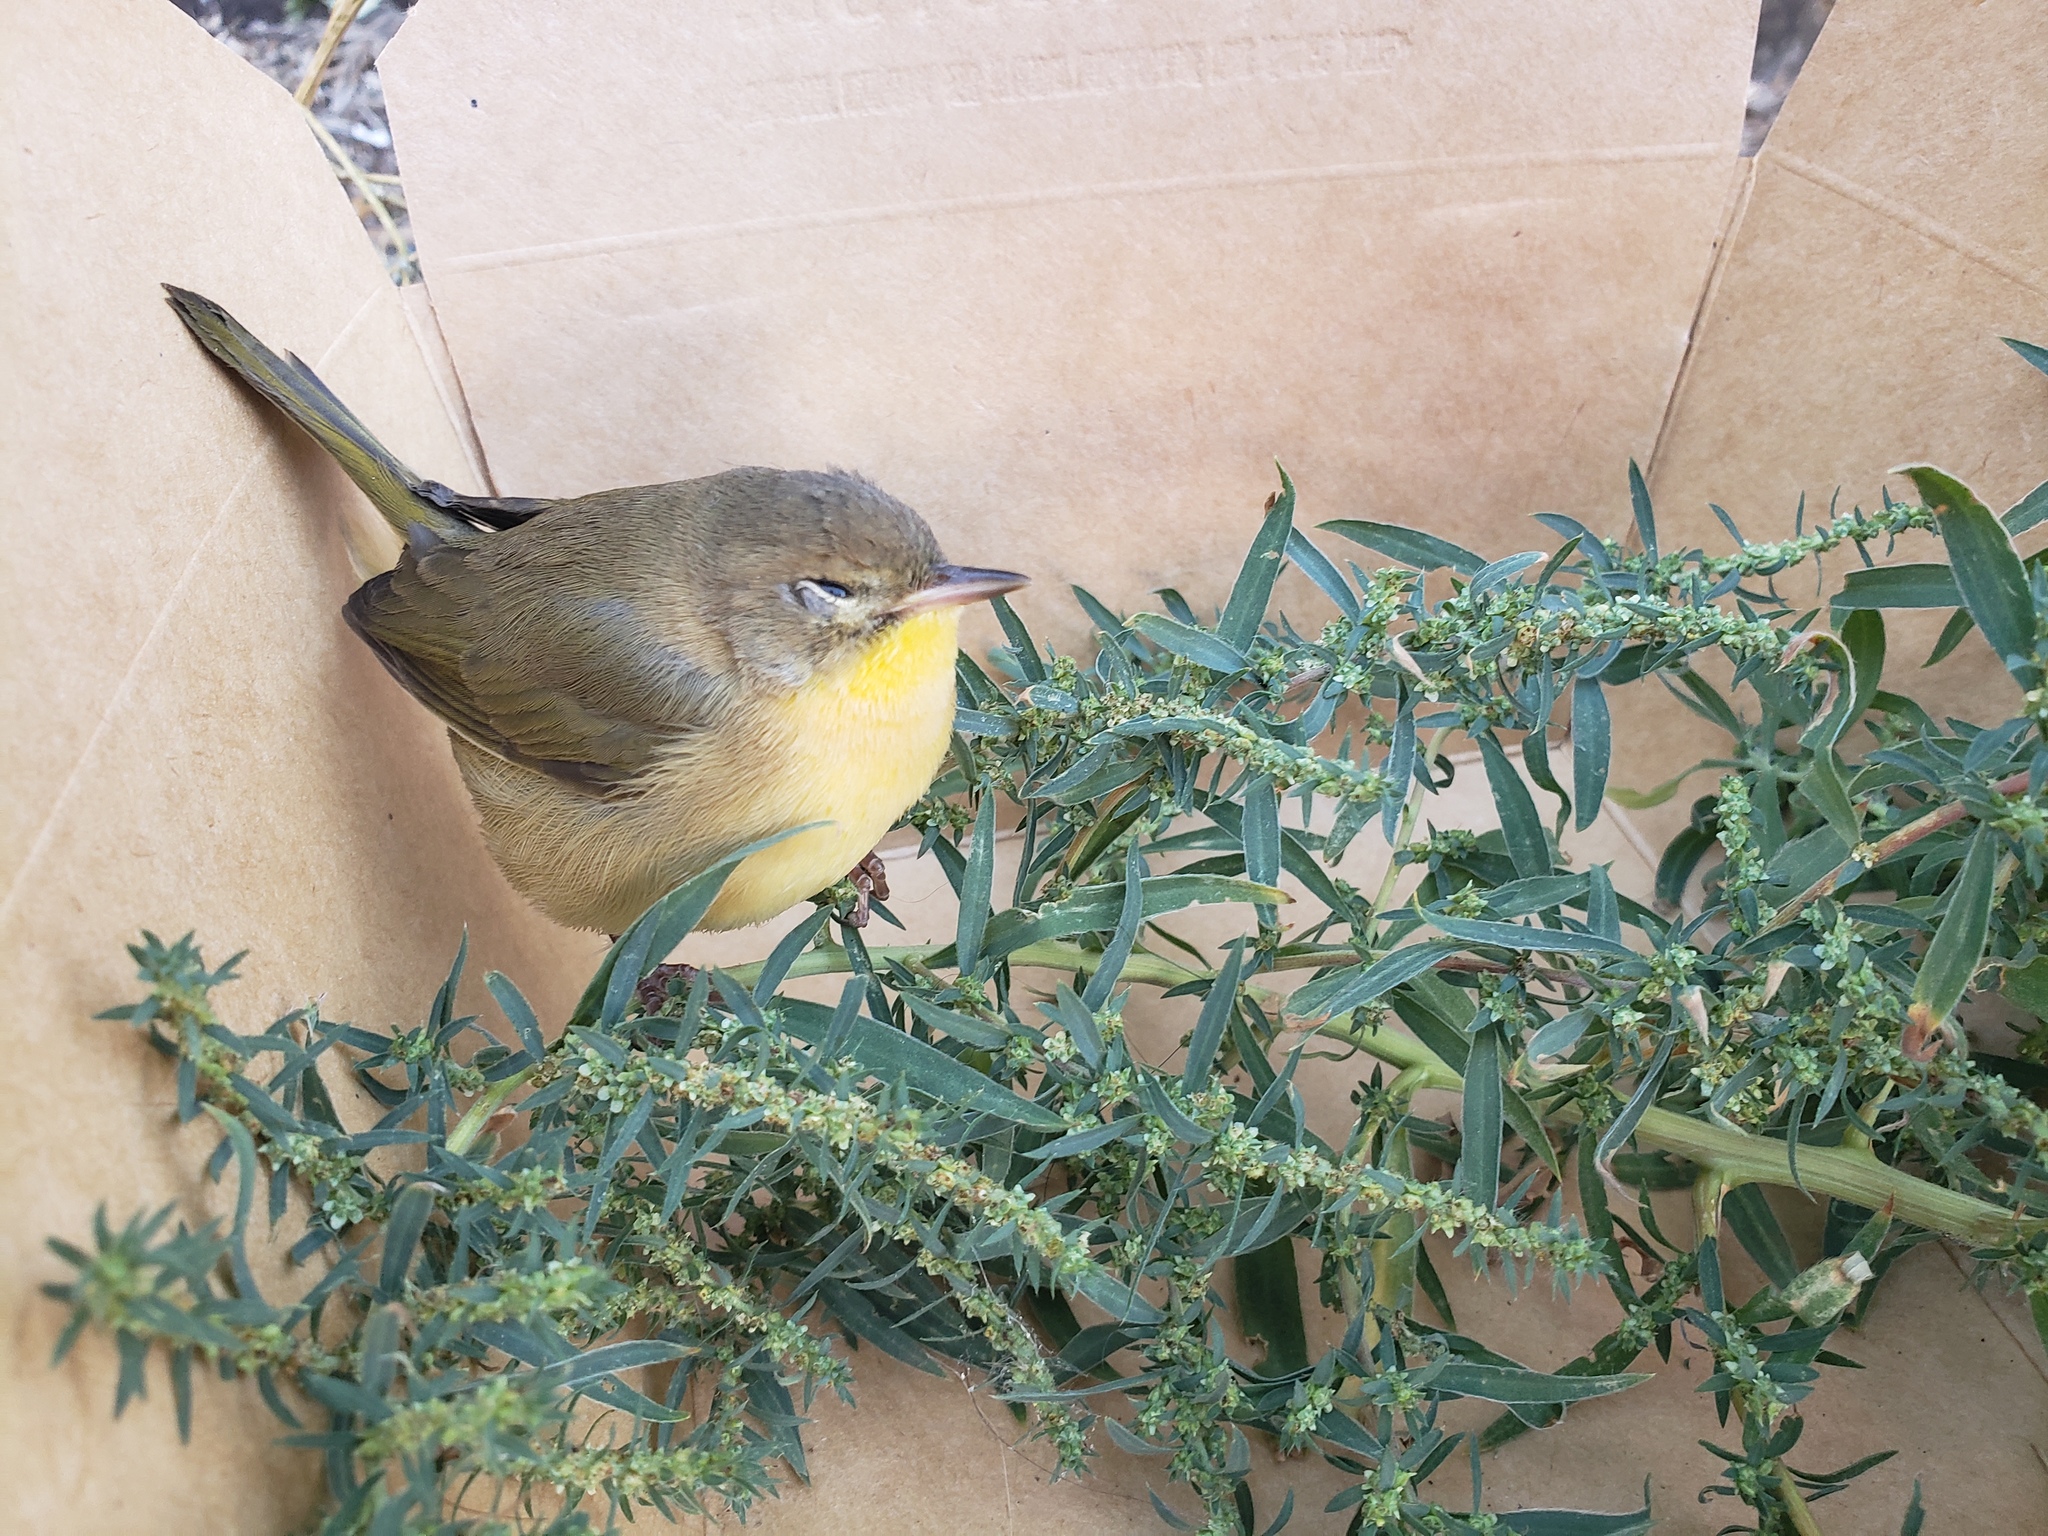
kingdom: Animalia
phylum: Chordata
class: Aves
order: Passeriformes
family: Parulidae
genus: Geothlypis
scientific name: Geothlypis trichas
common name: Common yellowthroat
